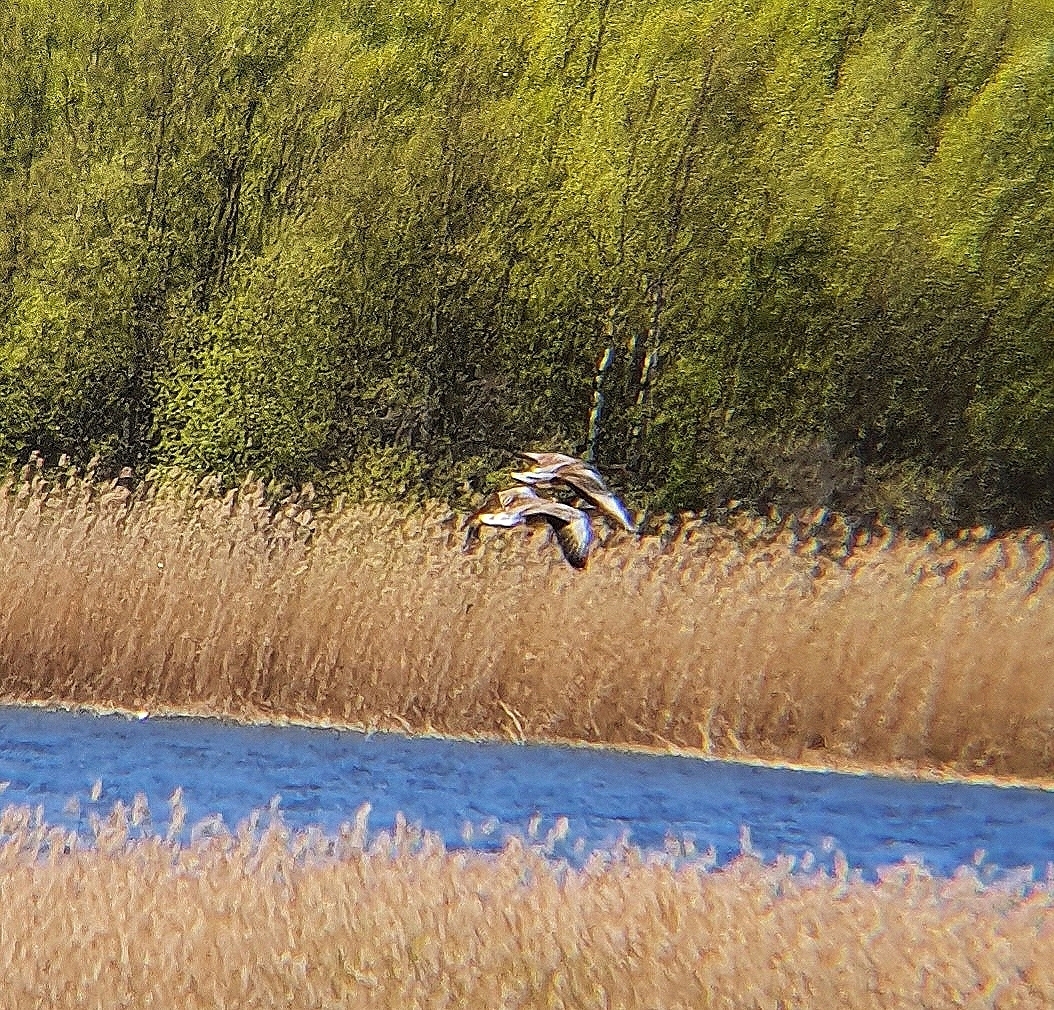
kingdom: Animalia
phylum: Chordata
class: Aves
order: Anseriformes
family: Anatidae
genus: Anser
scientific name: Anser anser
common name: Greylag goose
